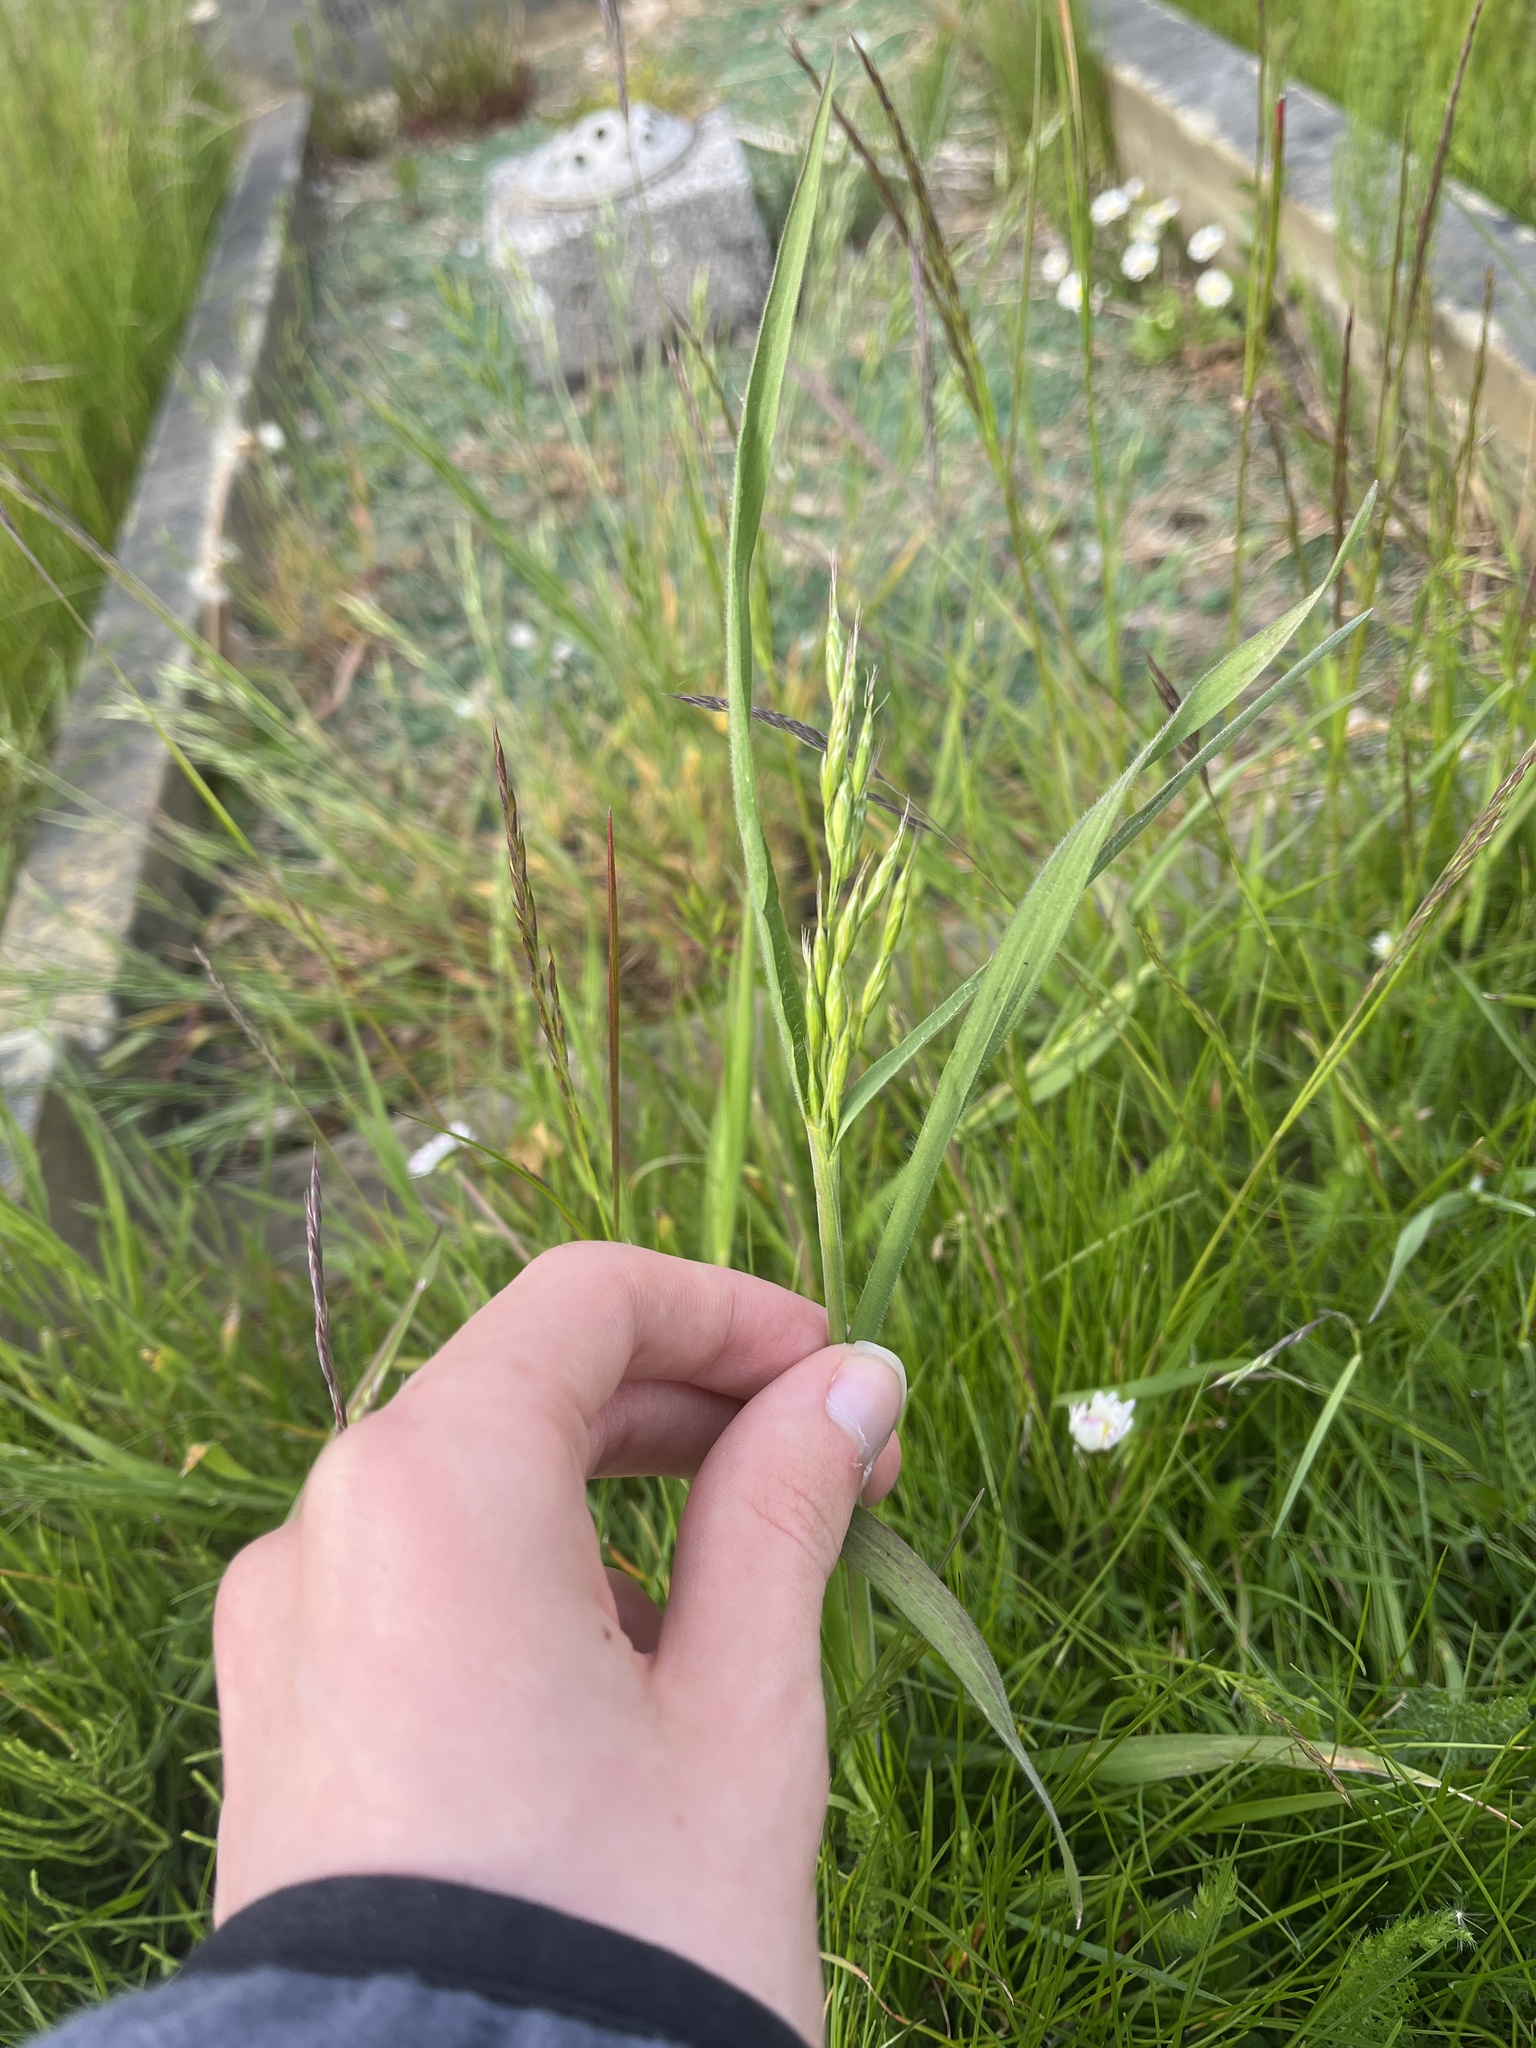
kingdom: Plantae
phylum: Tracheophyta
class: Liliopsida
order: Poales
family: Poaceae
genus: Bromus
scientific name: Bromus hordeaceus
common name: Soft brome
